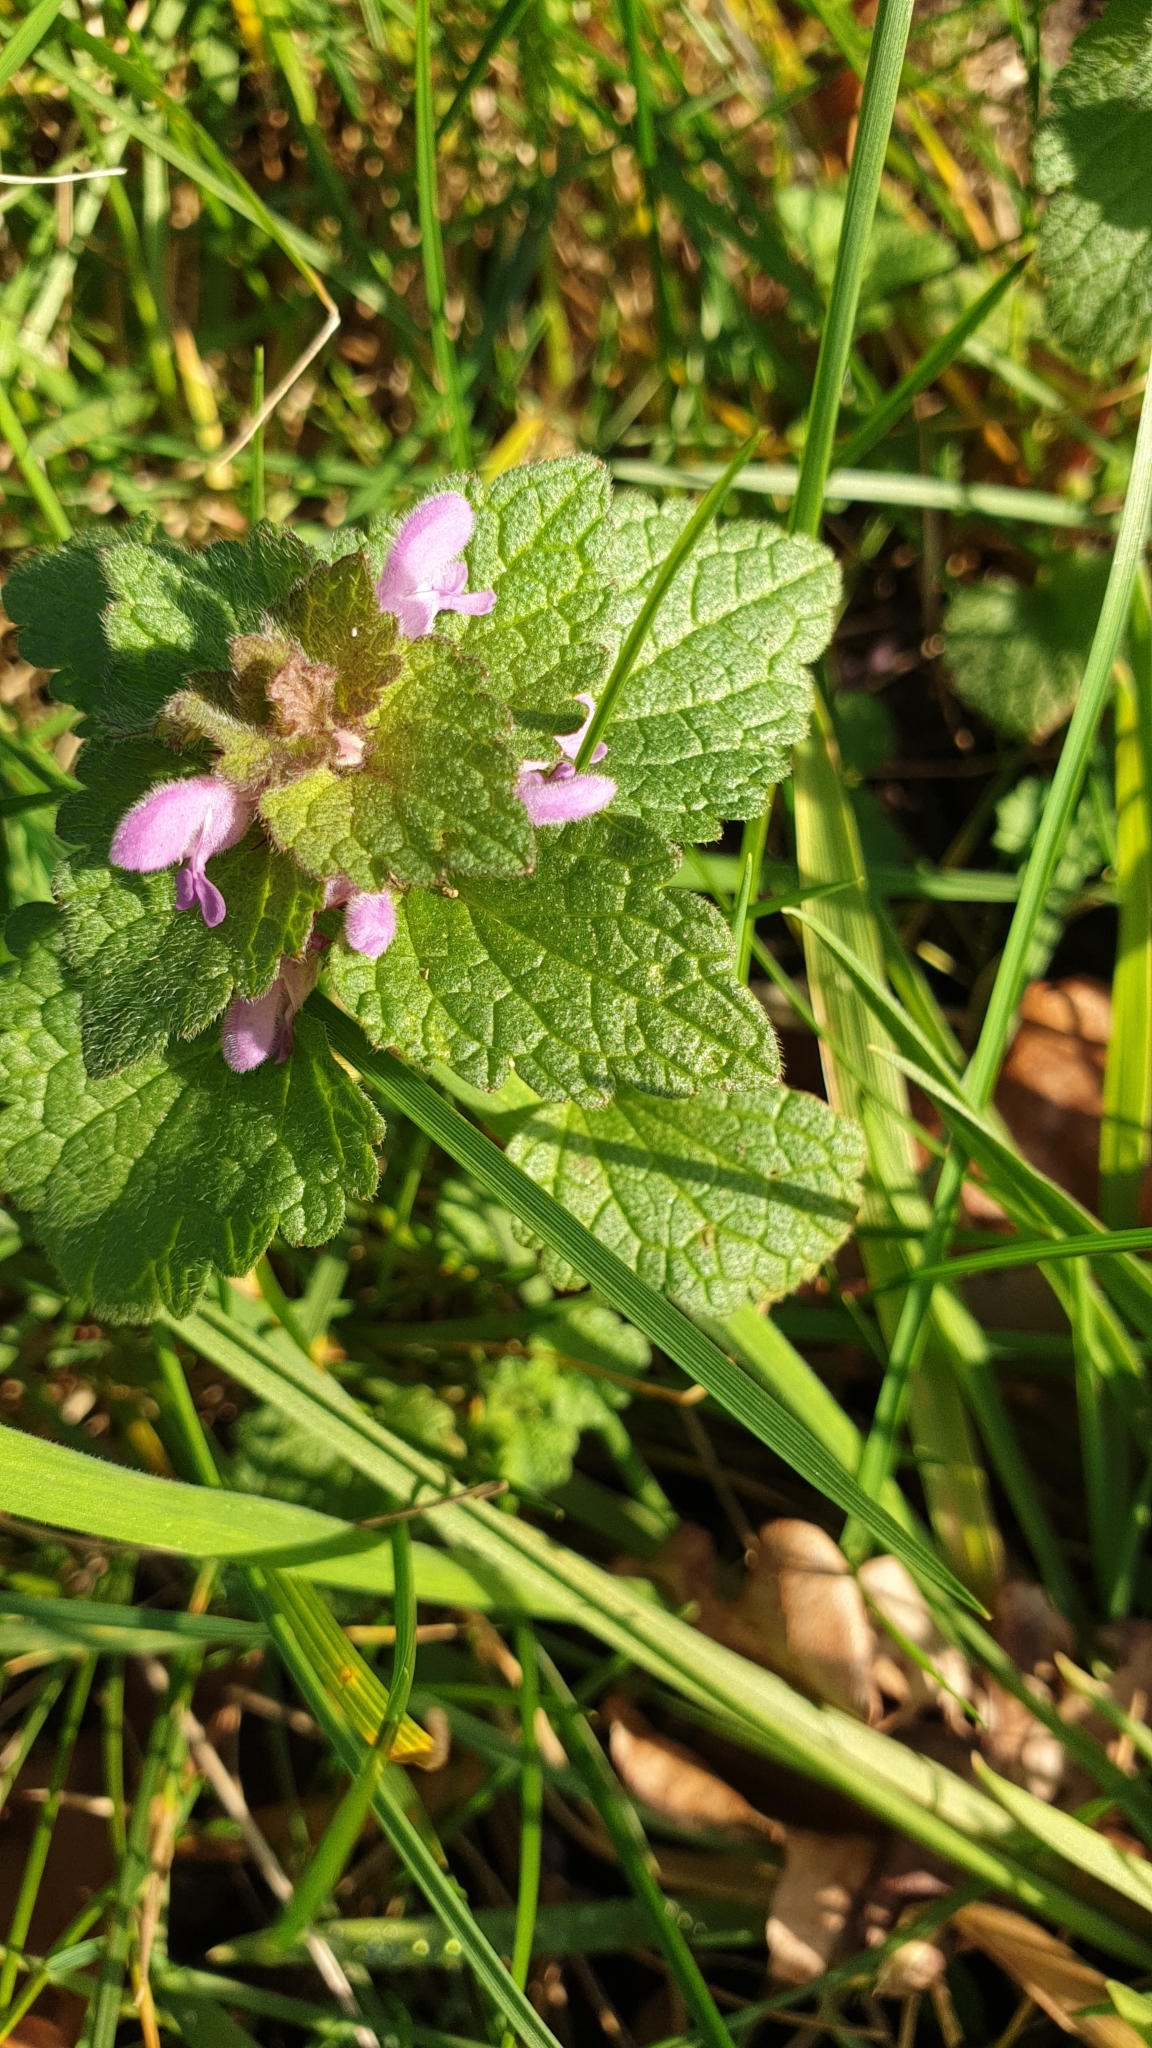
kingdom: Plantae
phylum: Tracheophyta
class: Magnoliopsida
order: Lamiales
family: Lamiaceae
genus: Lamium
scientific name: Lamium purpureum
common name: Red dead-nettle
